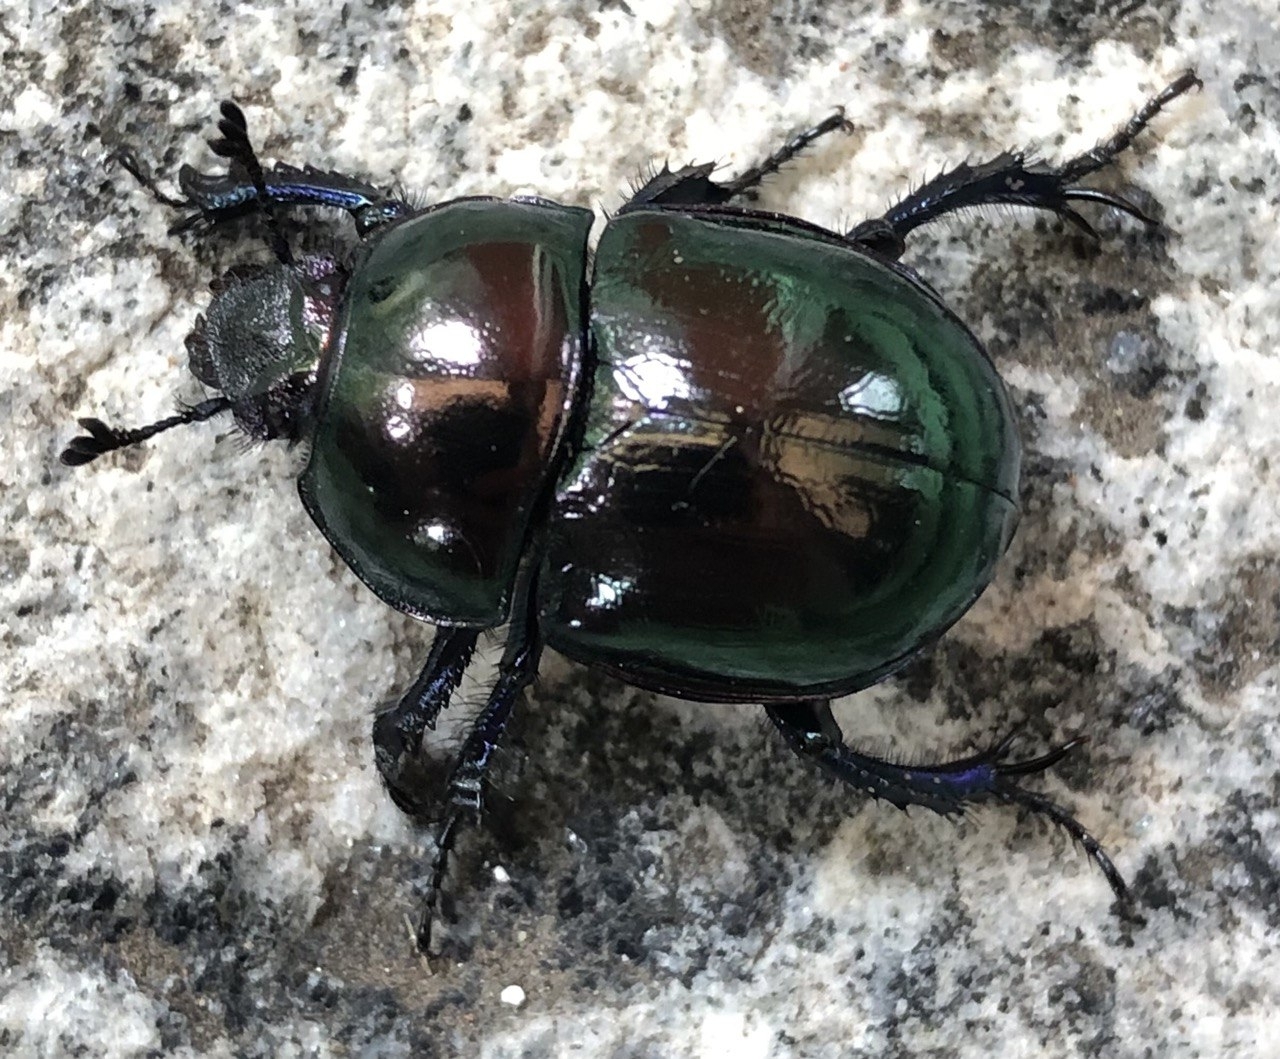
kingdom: Animalia
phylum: Arthropoda
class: Insecta
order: Coleoptera
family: Geotrupidae
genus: Trypocopris
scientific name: Trypocopris pyrenaeus
